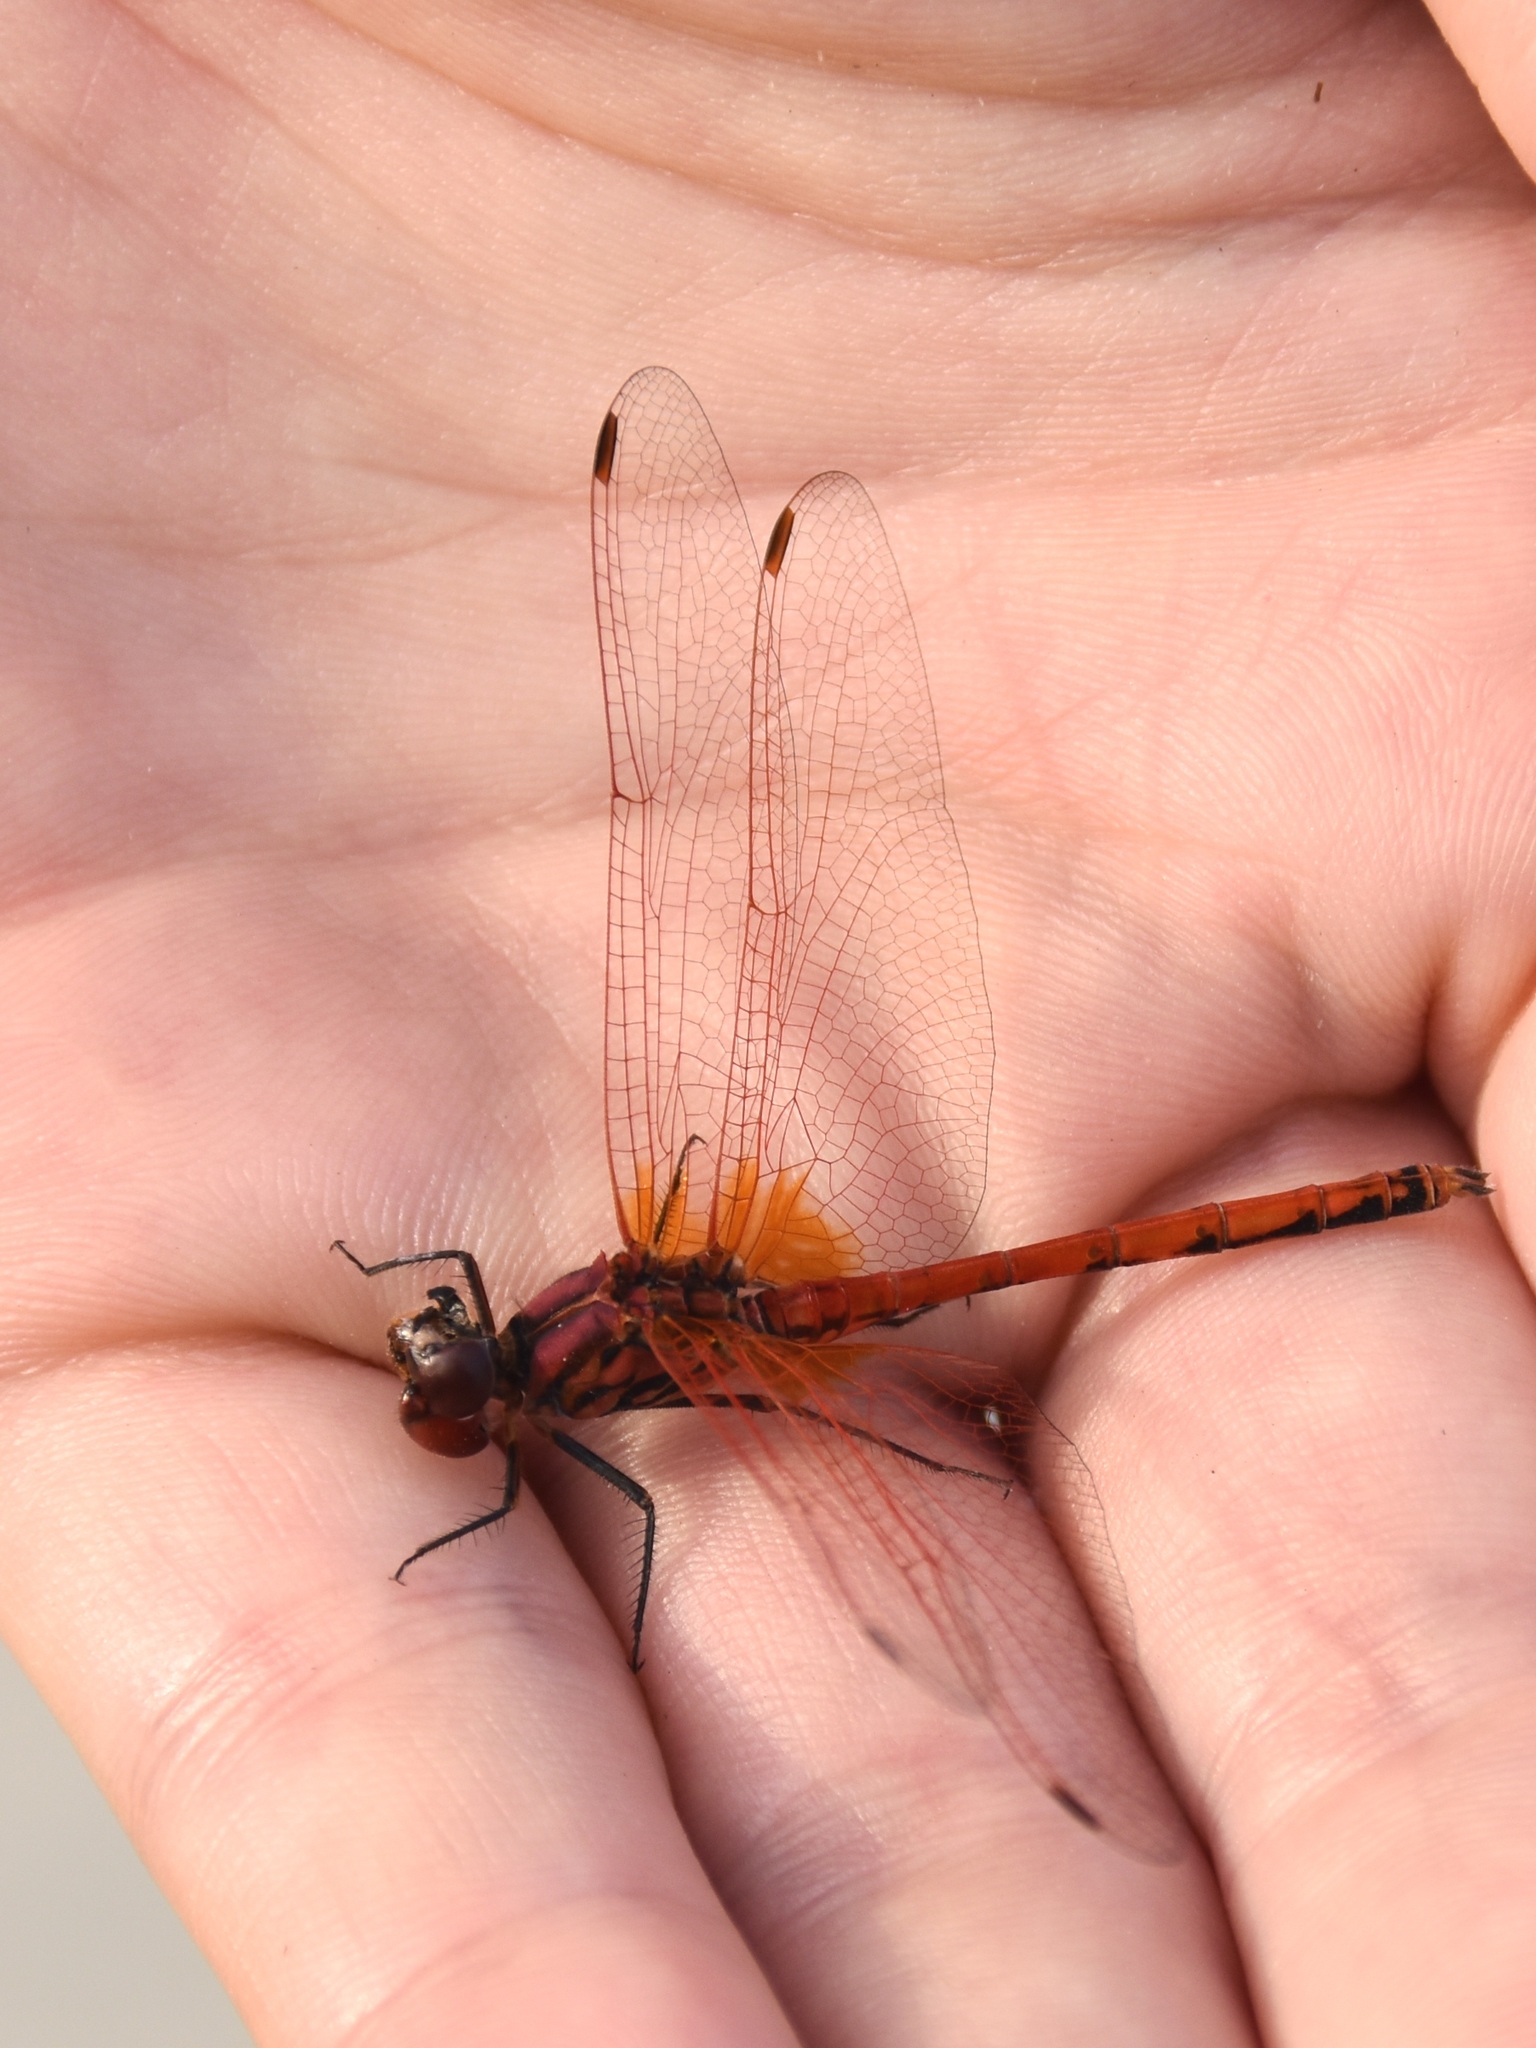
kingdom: Animalia
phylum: Arthropoda
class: Insecta
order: Odonata
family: Libellulidae
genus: Trithemis
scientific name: Trithemis arteriosa
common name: Red-veined dropwing
